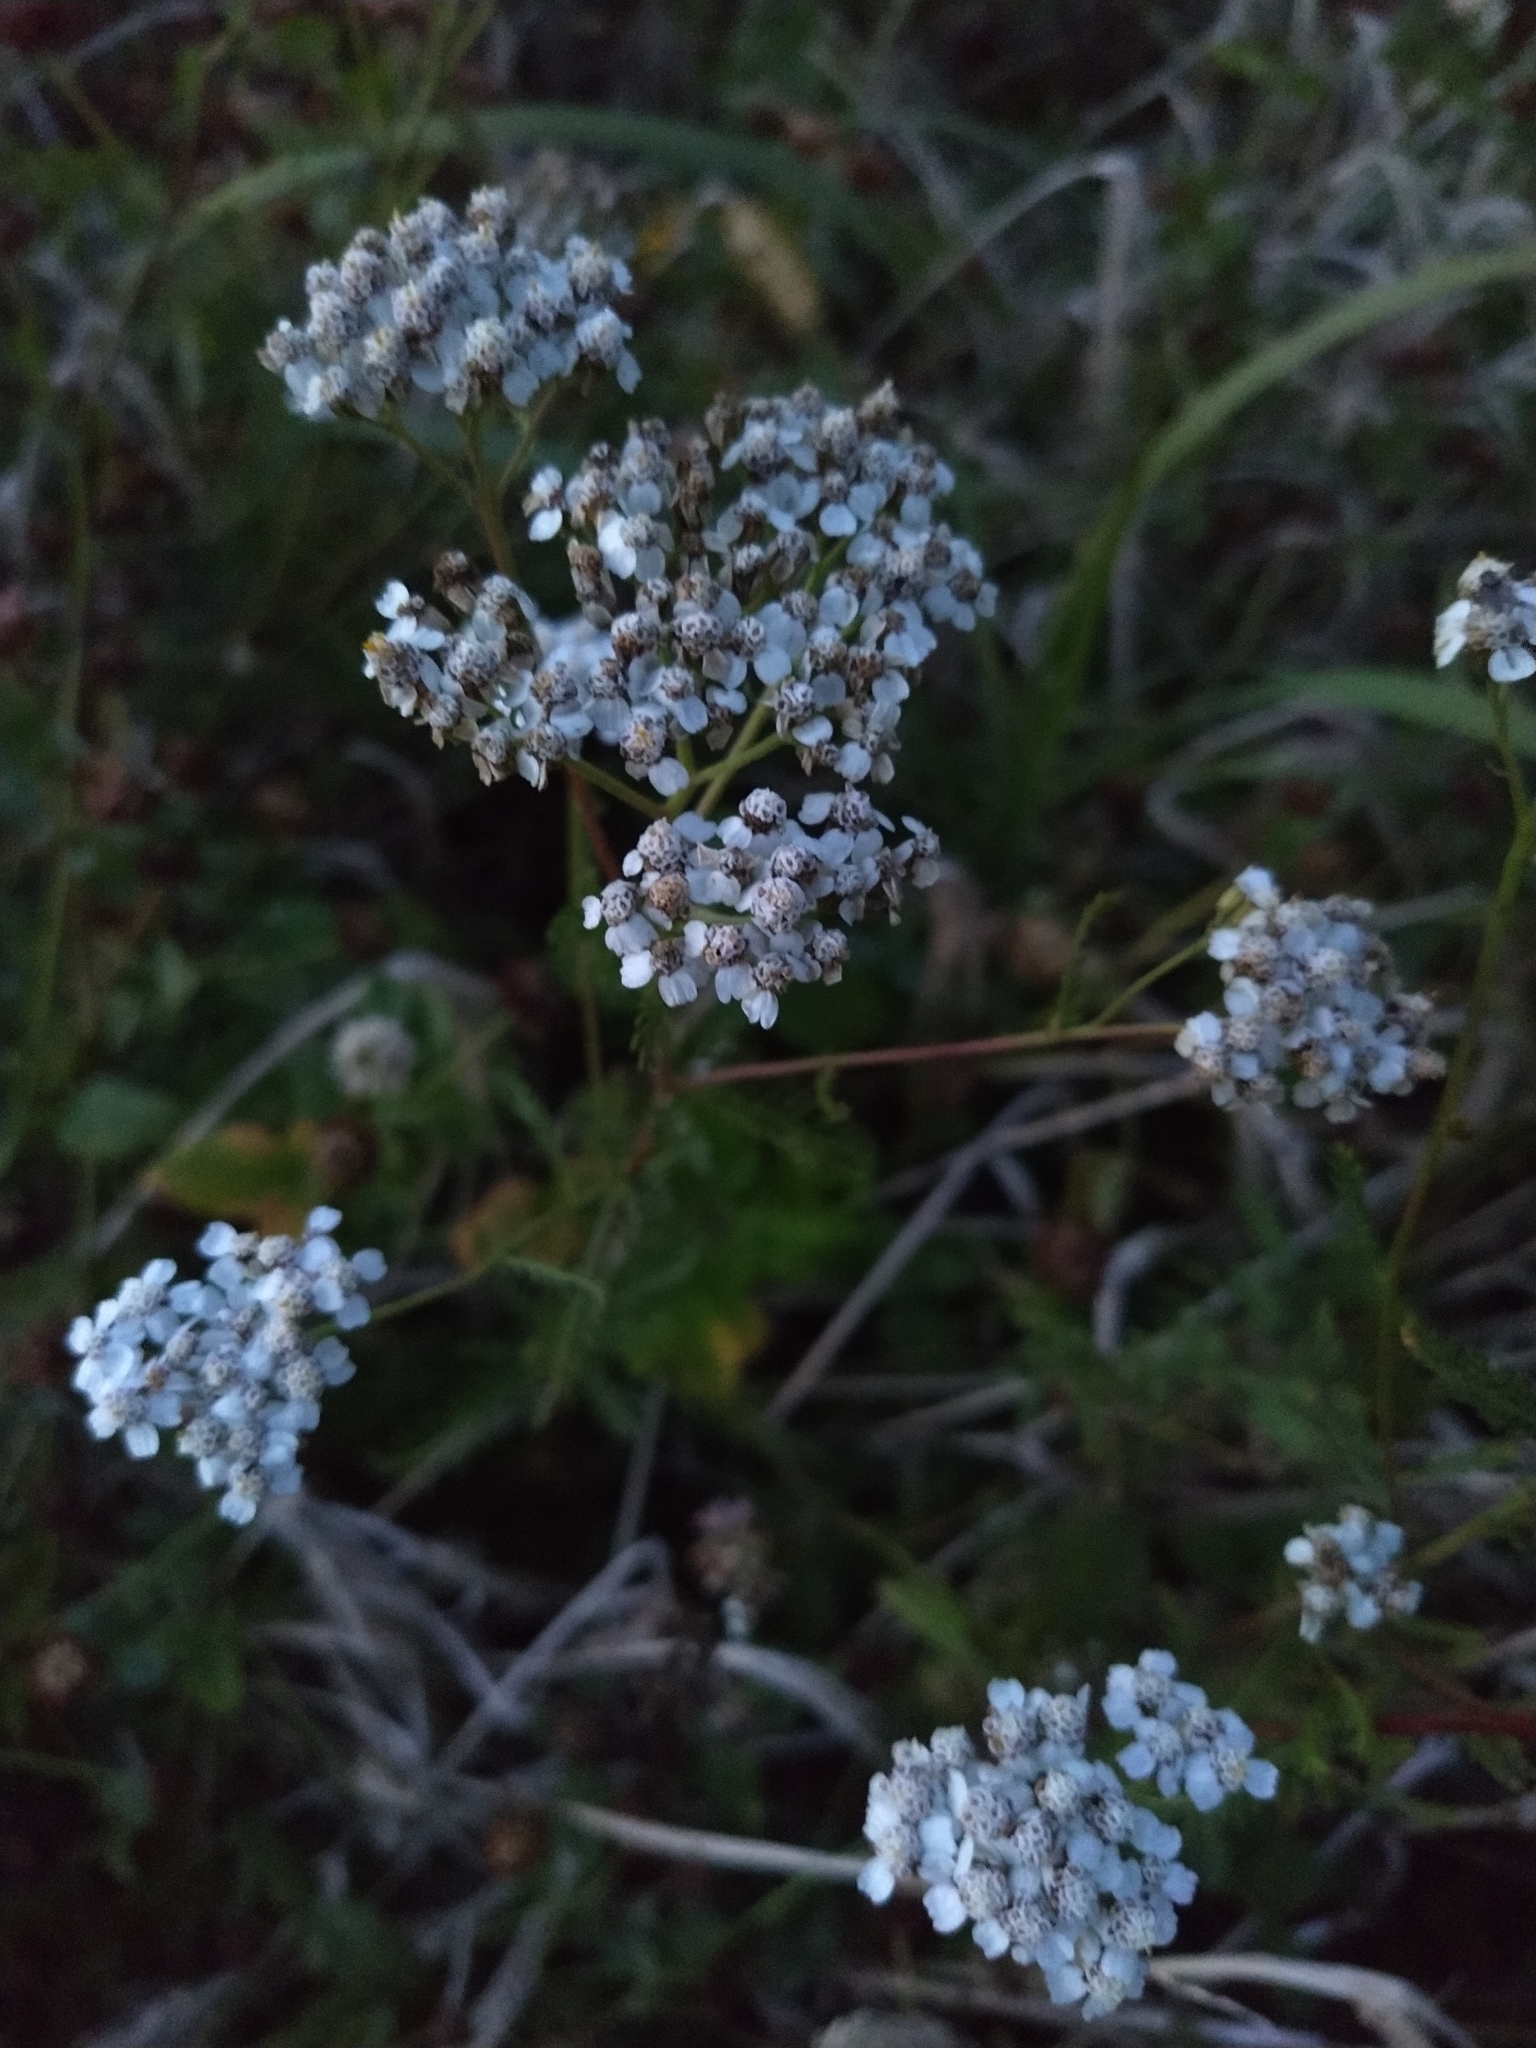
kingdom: Plantae
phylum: Tracheophyta
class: Magnoliopsida
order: Asterales
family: Asteraceae
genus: Achillea
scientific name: Achillea millefolium
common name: Yarrow
